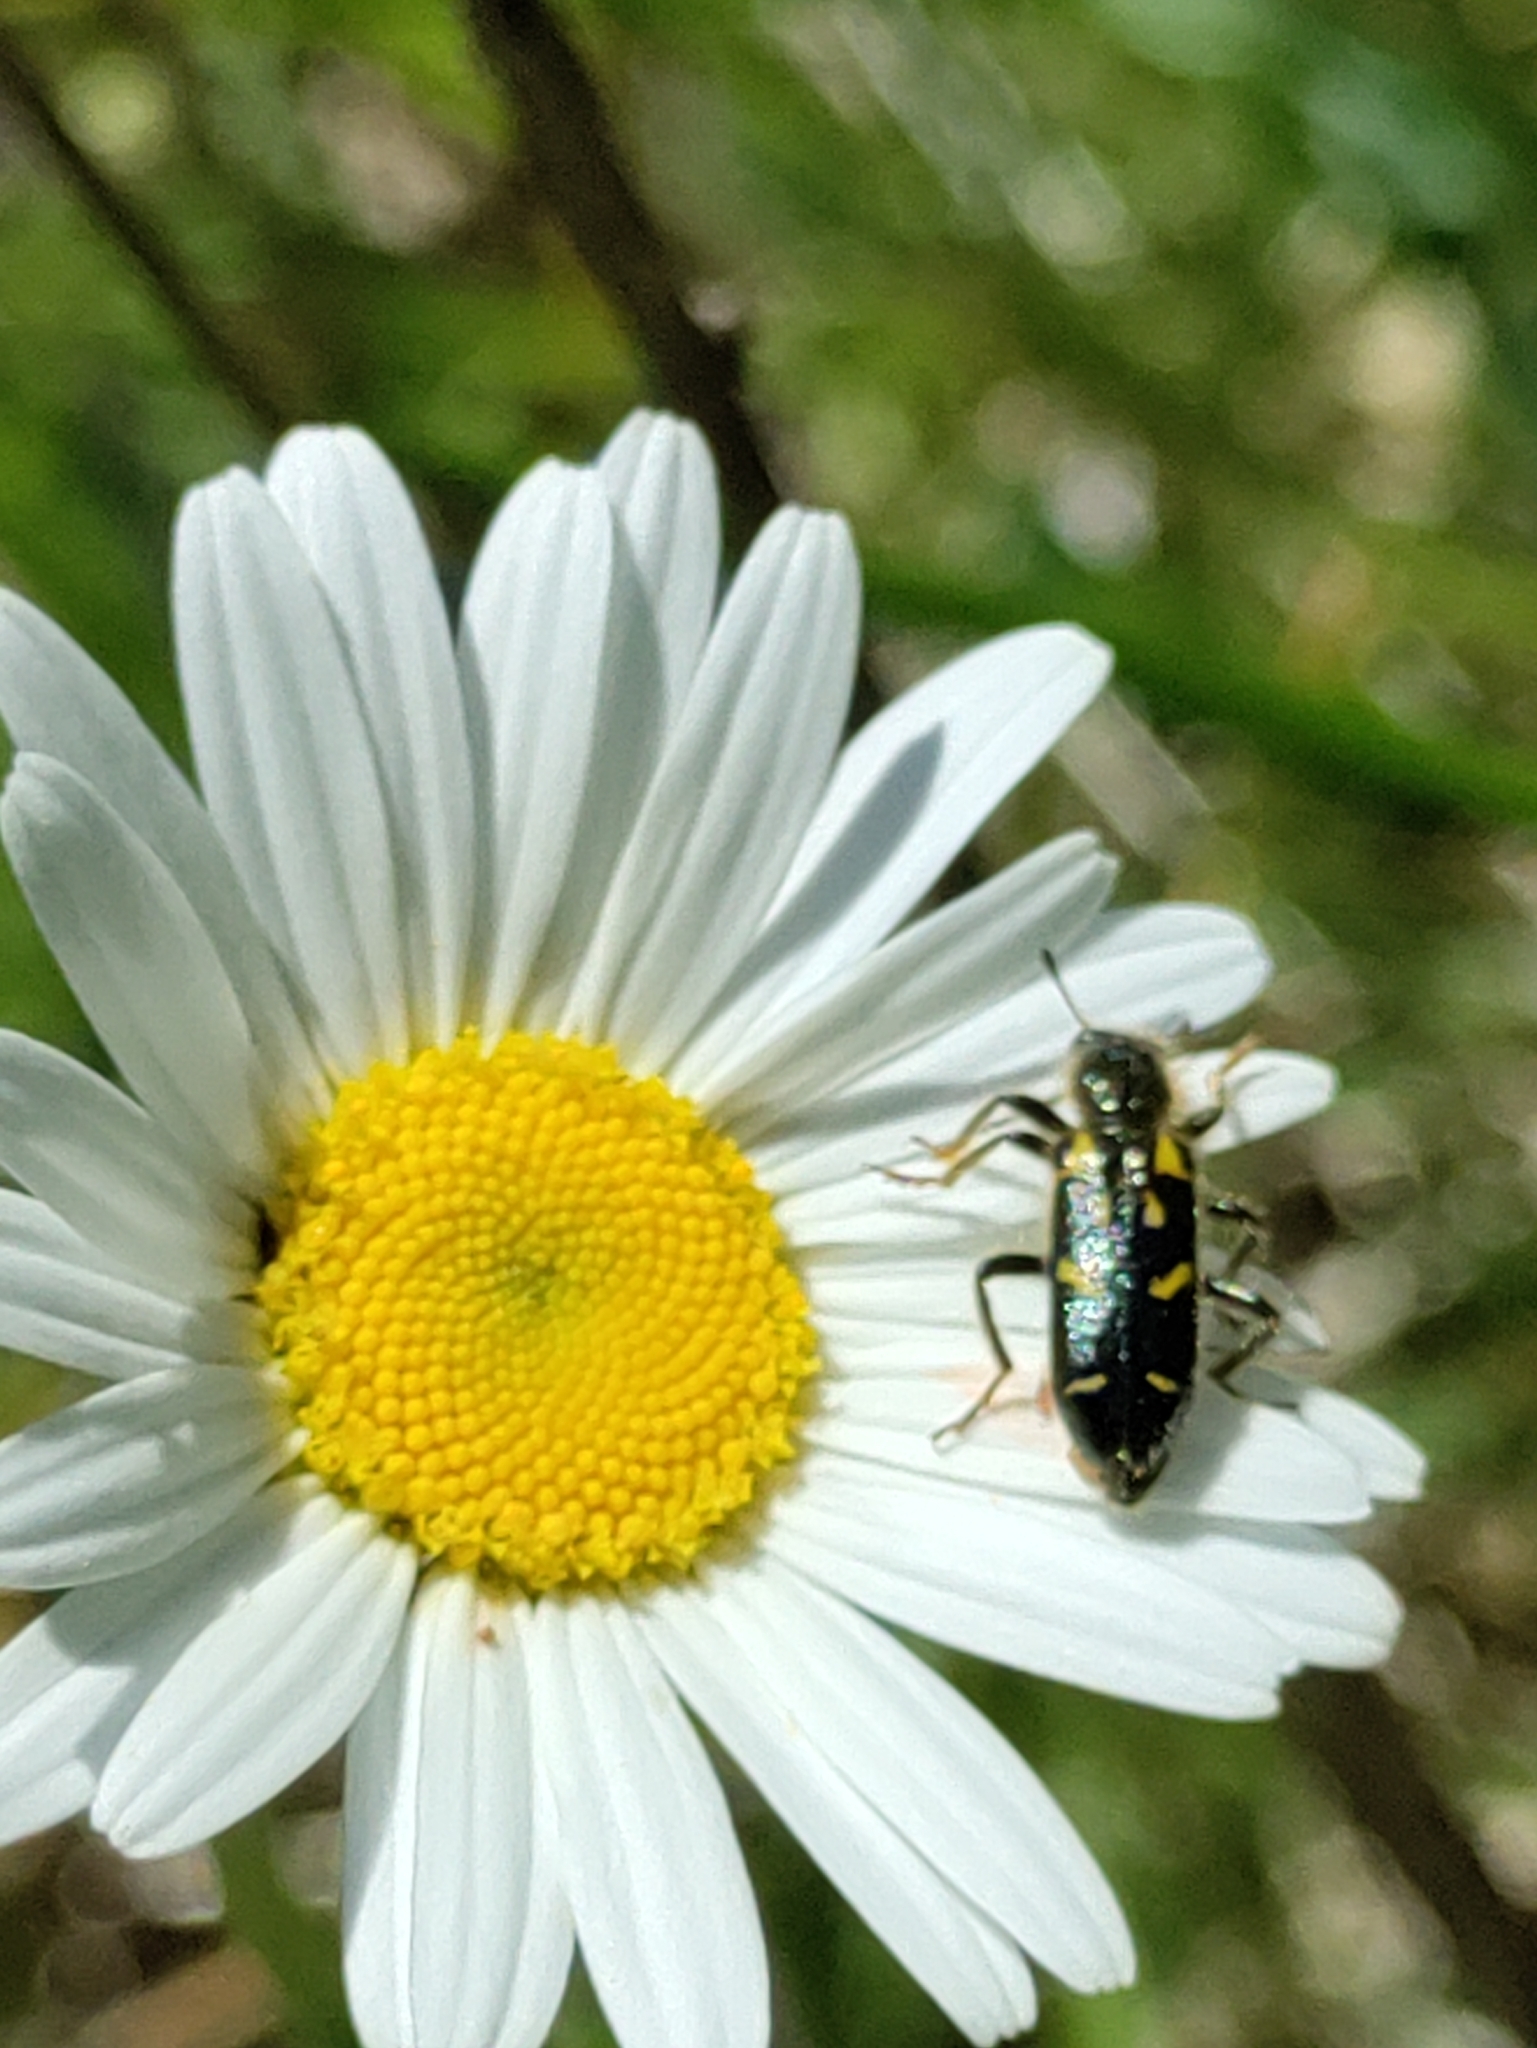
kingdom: Animalia
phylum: Arthropoda
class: Insecta
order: Coleoptera
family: Cleridae
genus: Trichodes
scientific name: Trichodes ornatus
